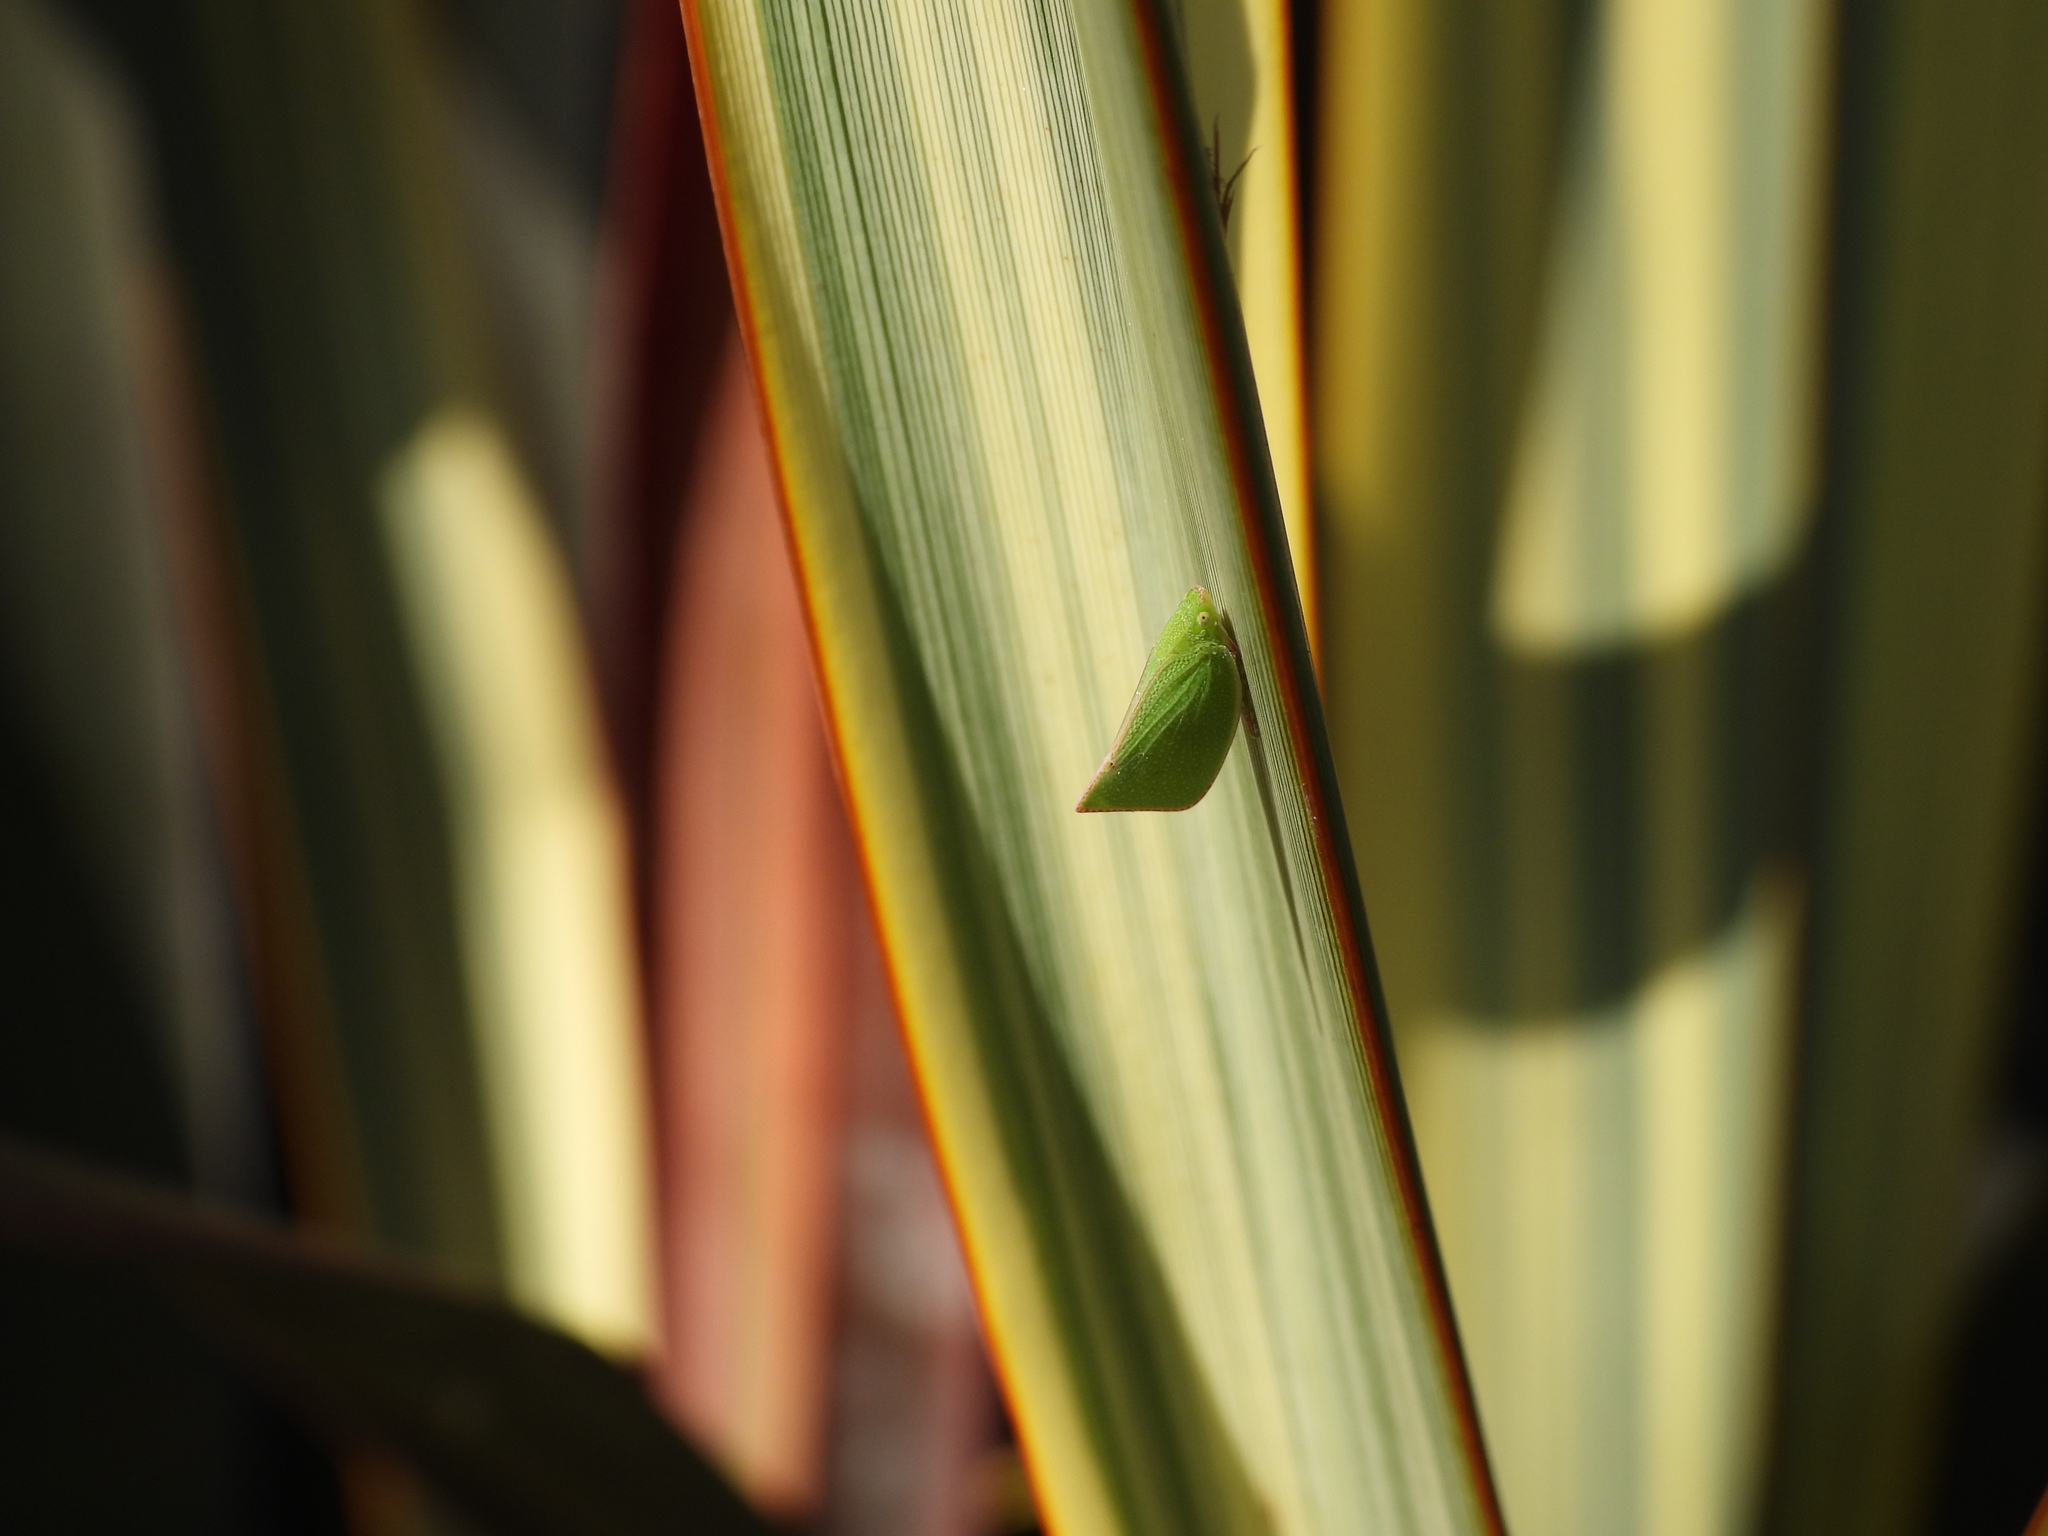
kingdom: Animalia
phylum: Arthropoda
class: Insecta
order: Hemiptera
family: Flatidae
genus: Siphanta
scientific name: Siphanta acuta
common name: Torpedo bug
